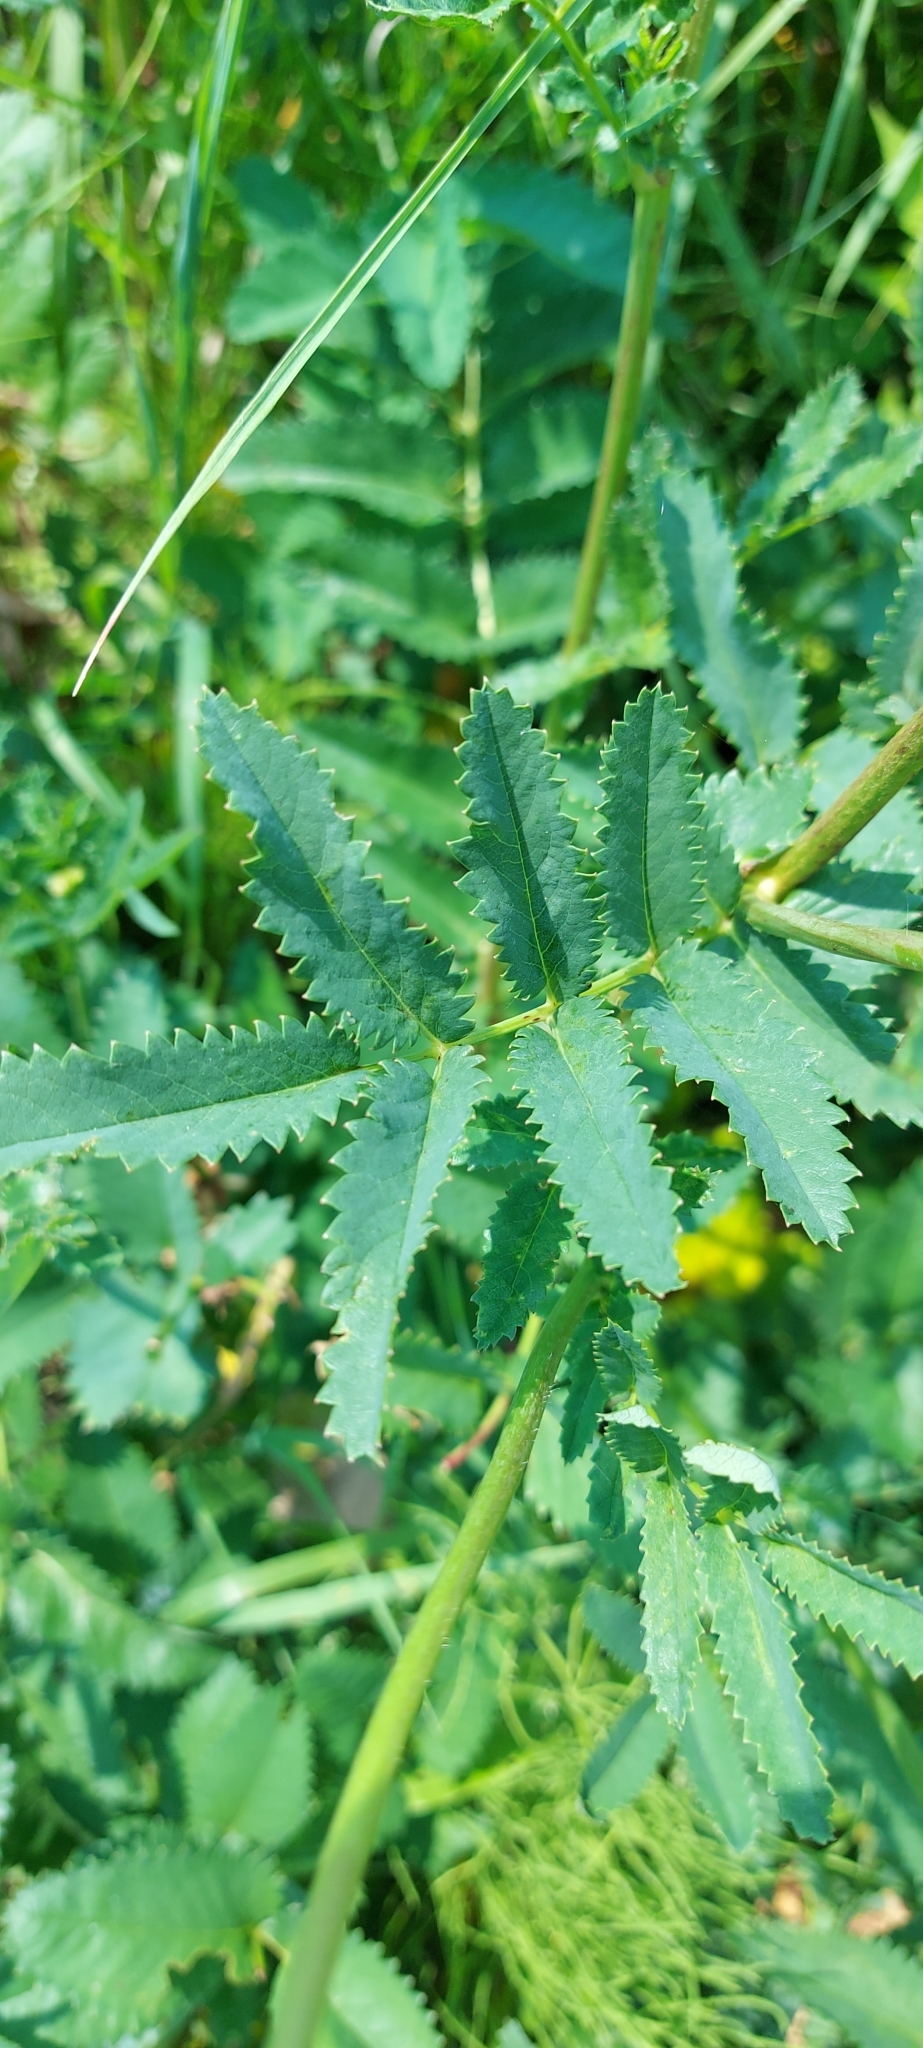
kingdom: Plantae
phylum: Tracheophyta
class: Magnoliopsida
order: Rosales
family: Rosaceae
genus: Sanguisorba
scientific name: Sanguisorba officinalis
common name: Great burnet
